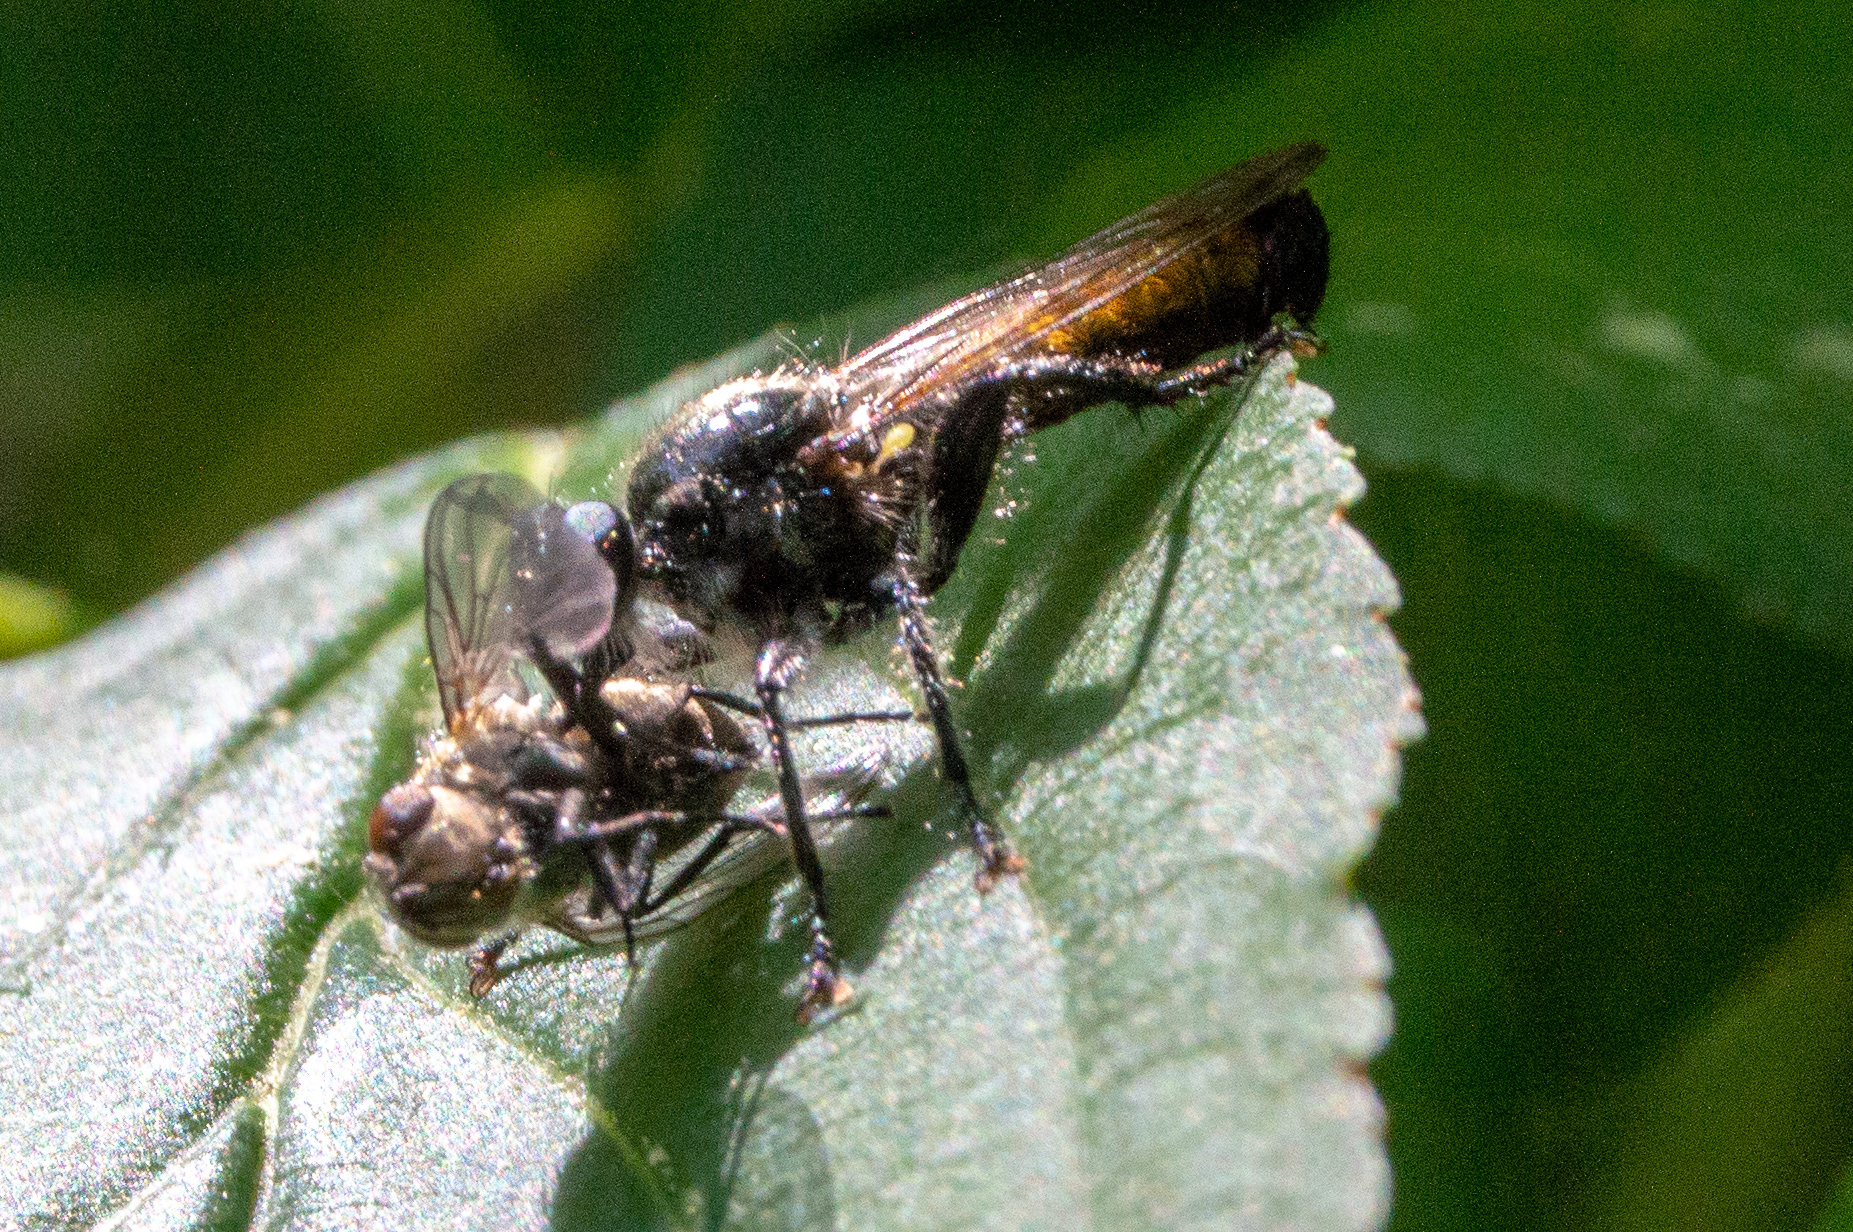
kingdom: Animalia
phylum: Arthropoda
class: Insecta
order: Diptera
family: Asilidae
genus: Laphria
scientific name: Laphria
